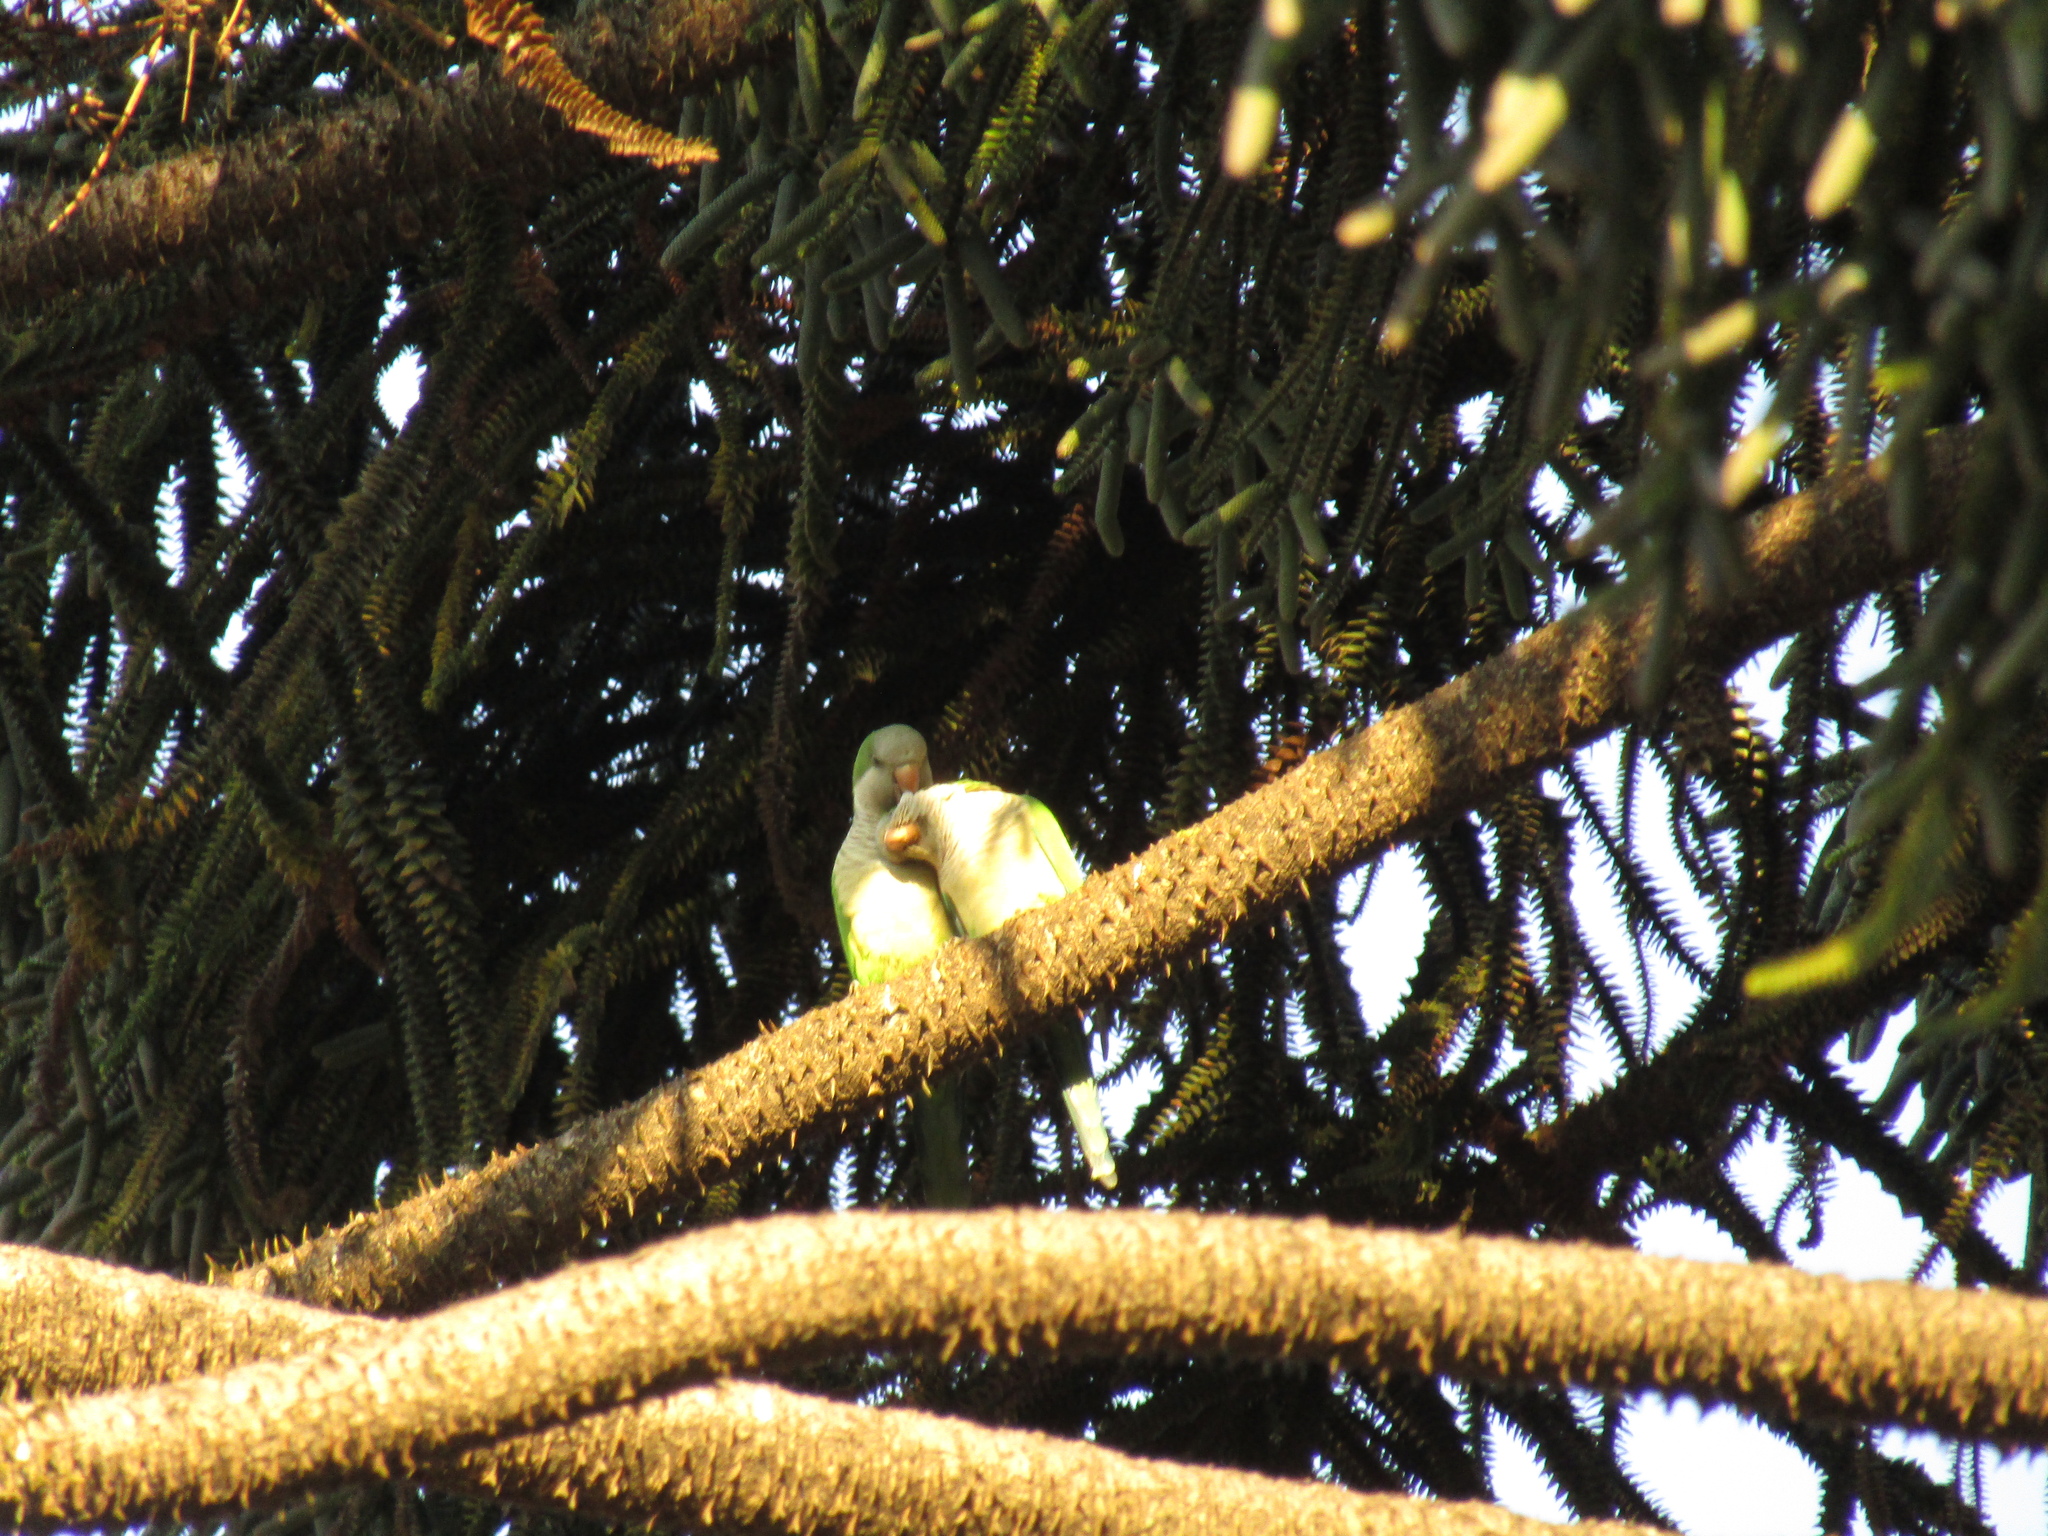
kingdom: Animalia
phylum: Chordata
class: Aves
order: Psittaciformes
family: Psittacidae
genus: Myiopsitta
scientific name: Myiopsitta monachus
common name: Monk parakeet
